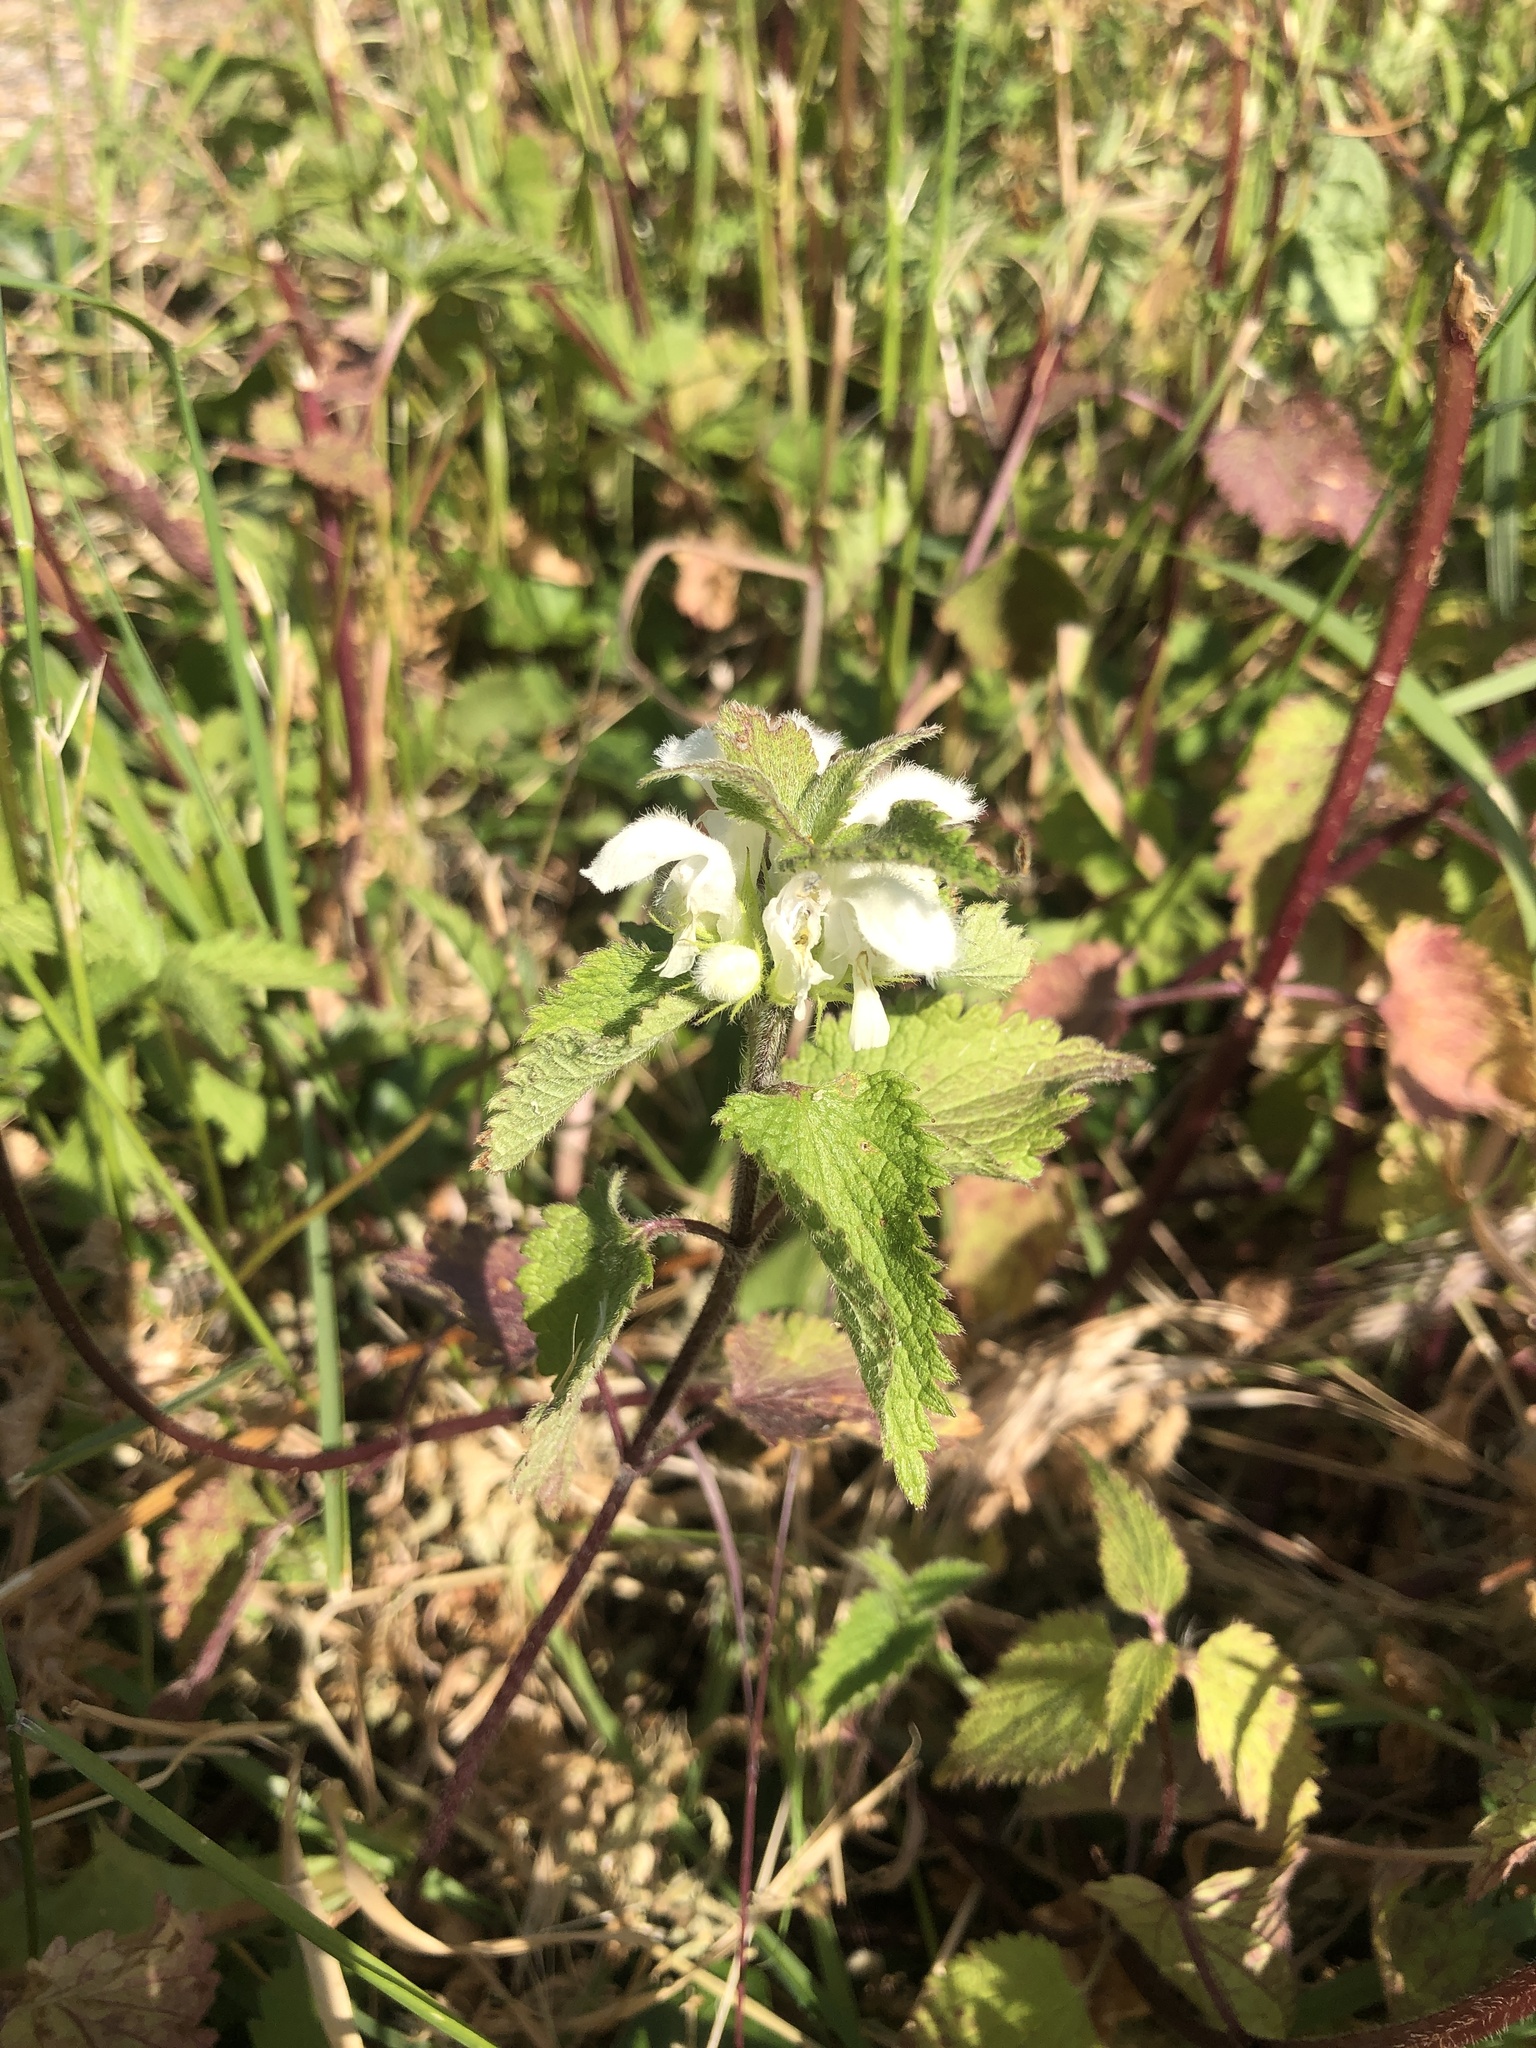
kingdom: Plantae
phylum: Tracheophyta
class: Magnoliopsida
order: Lamiales
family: Lamiaceae
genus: Lamium
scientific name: Lamium album
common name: White dead-nettle
